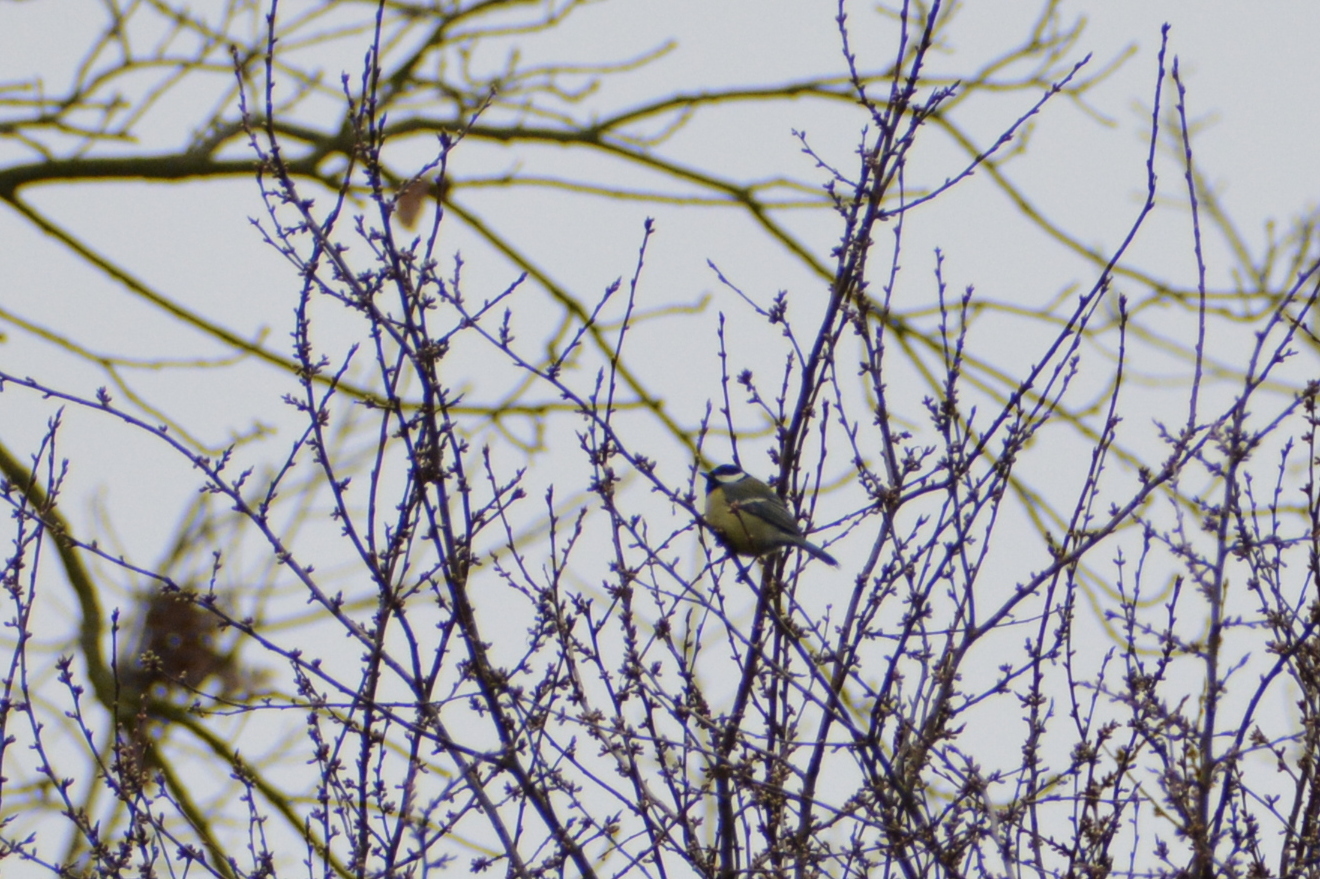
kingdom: Animalia
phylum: Chordata
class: Aves
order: Passeriformes
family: Paridae
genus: Parus
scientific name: Parus major
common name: Great tit
